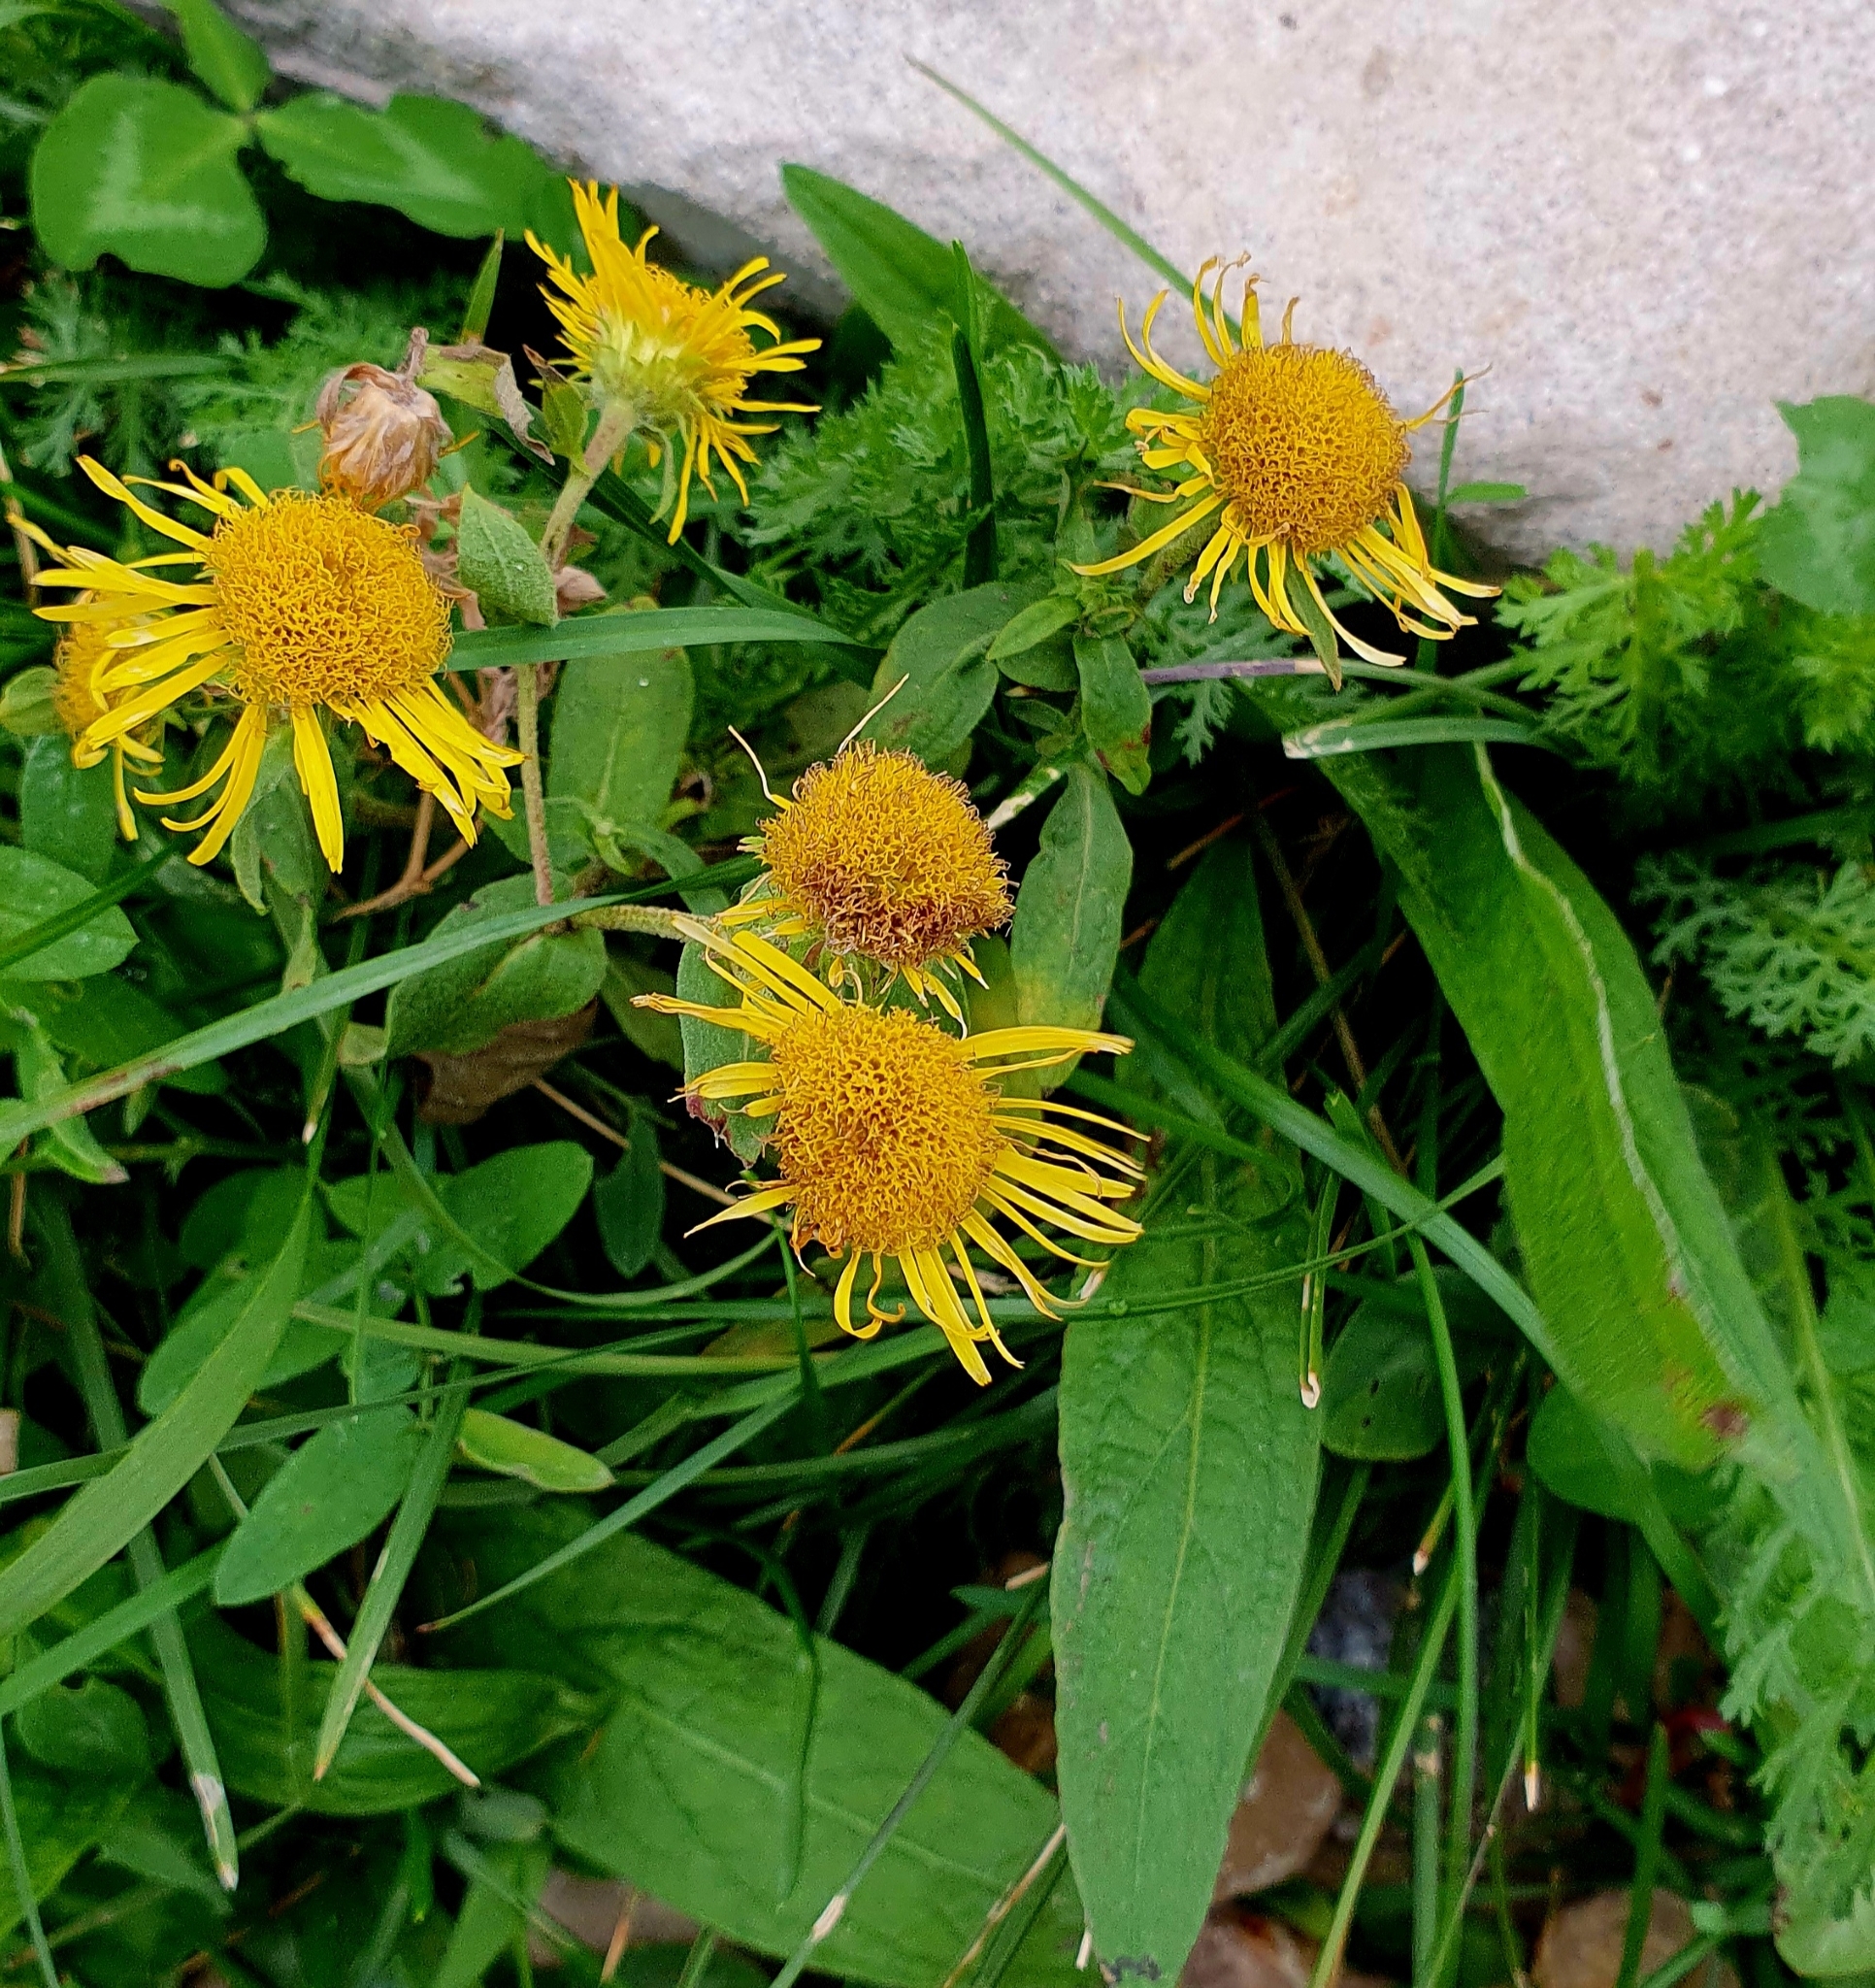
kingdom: Plantae
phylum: Tracheophyta
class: Magnoliopsida
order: Asterales
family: Asteraceae
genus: Pentanema
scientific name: Pentanema britannicum
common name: British elecampane
